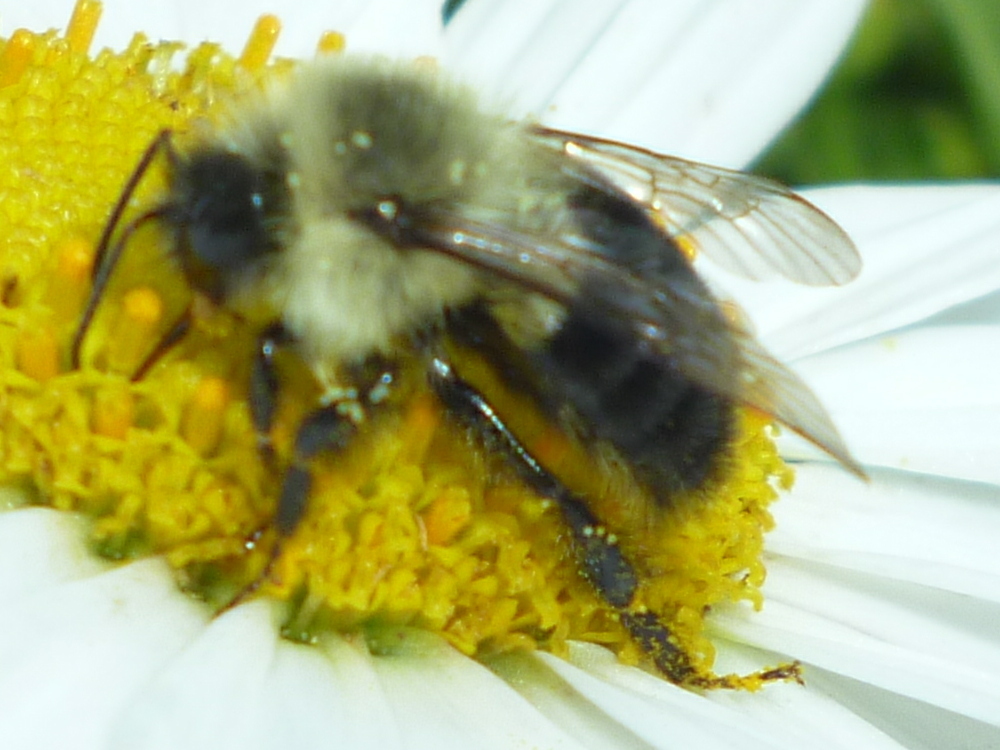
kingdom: Animalia
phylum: Arthropoda
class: Insecta
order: Hymenoptera
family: Apidae
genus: Bombus
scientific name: Bombus impatiens
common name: Common eastern bumble bee
